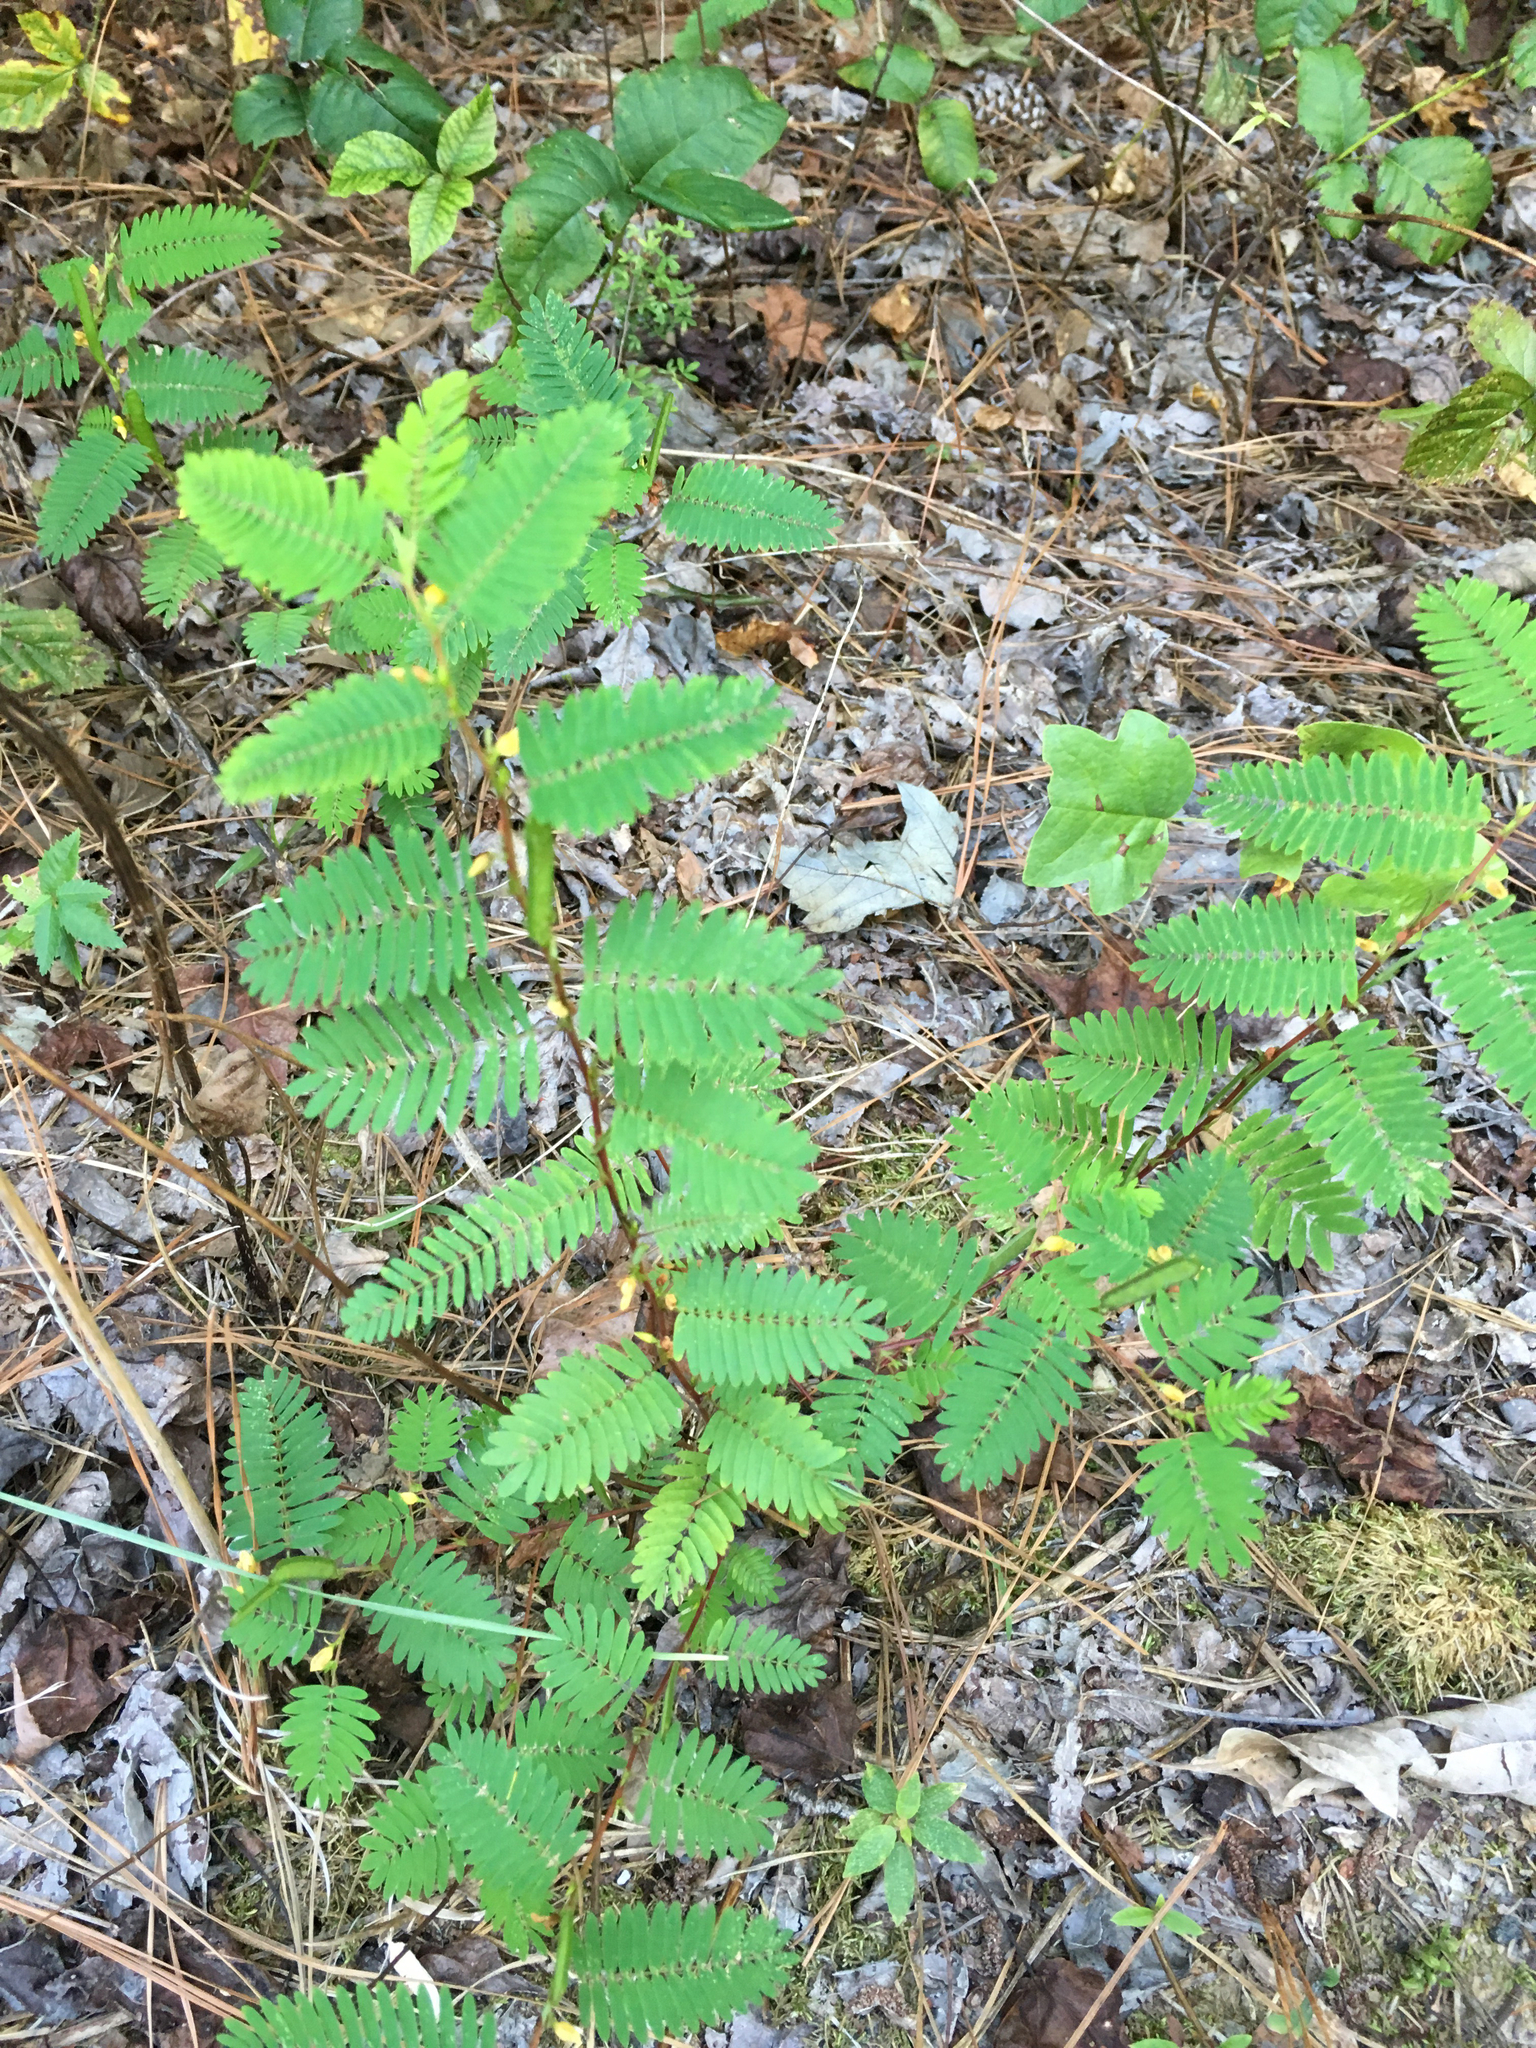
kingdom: Plantae
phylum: Tracheophyta
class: Magnoliopsida
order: Fabales
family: Fabaceae
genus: Chamaecrista
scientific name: Chamaecrista nictitans
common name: Sensitive cassia
